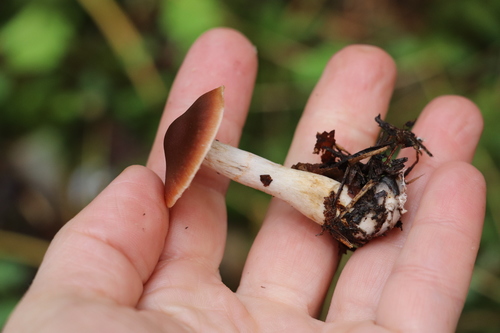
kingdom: Fungi
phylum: Basidiomycota
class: Agaricomycetes
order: Agaricales
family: Cortinariaceae
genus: Cortinarius
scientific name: Cortinarius
